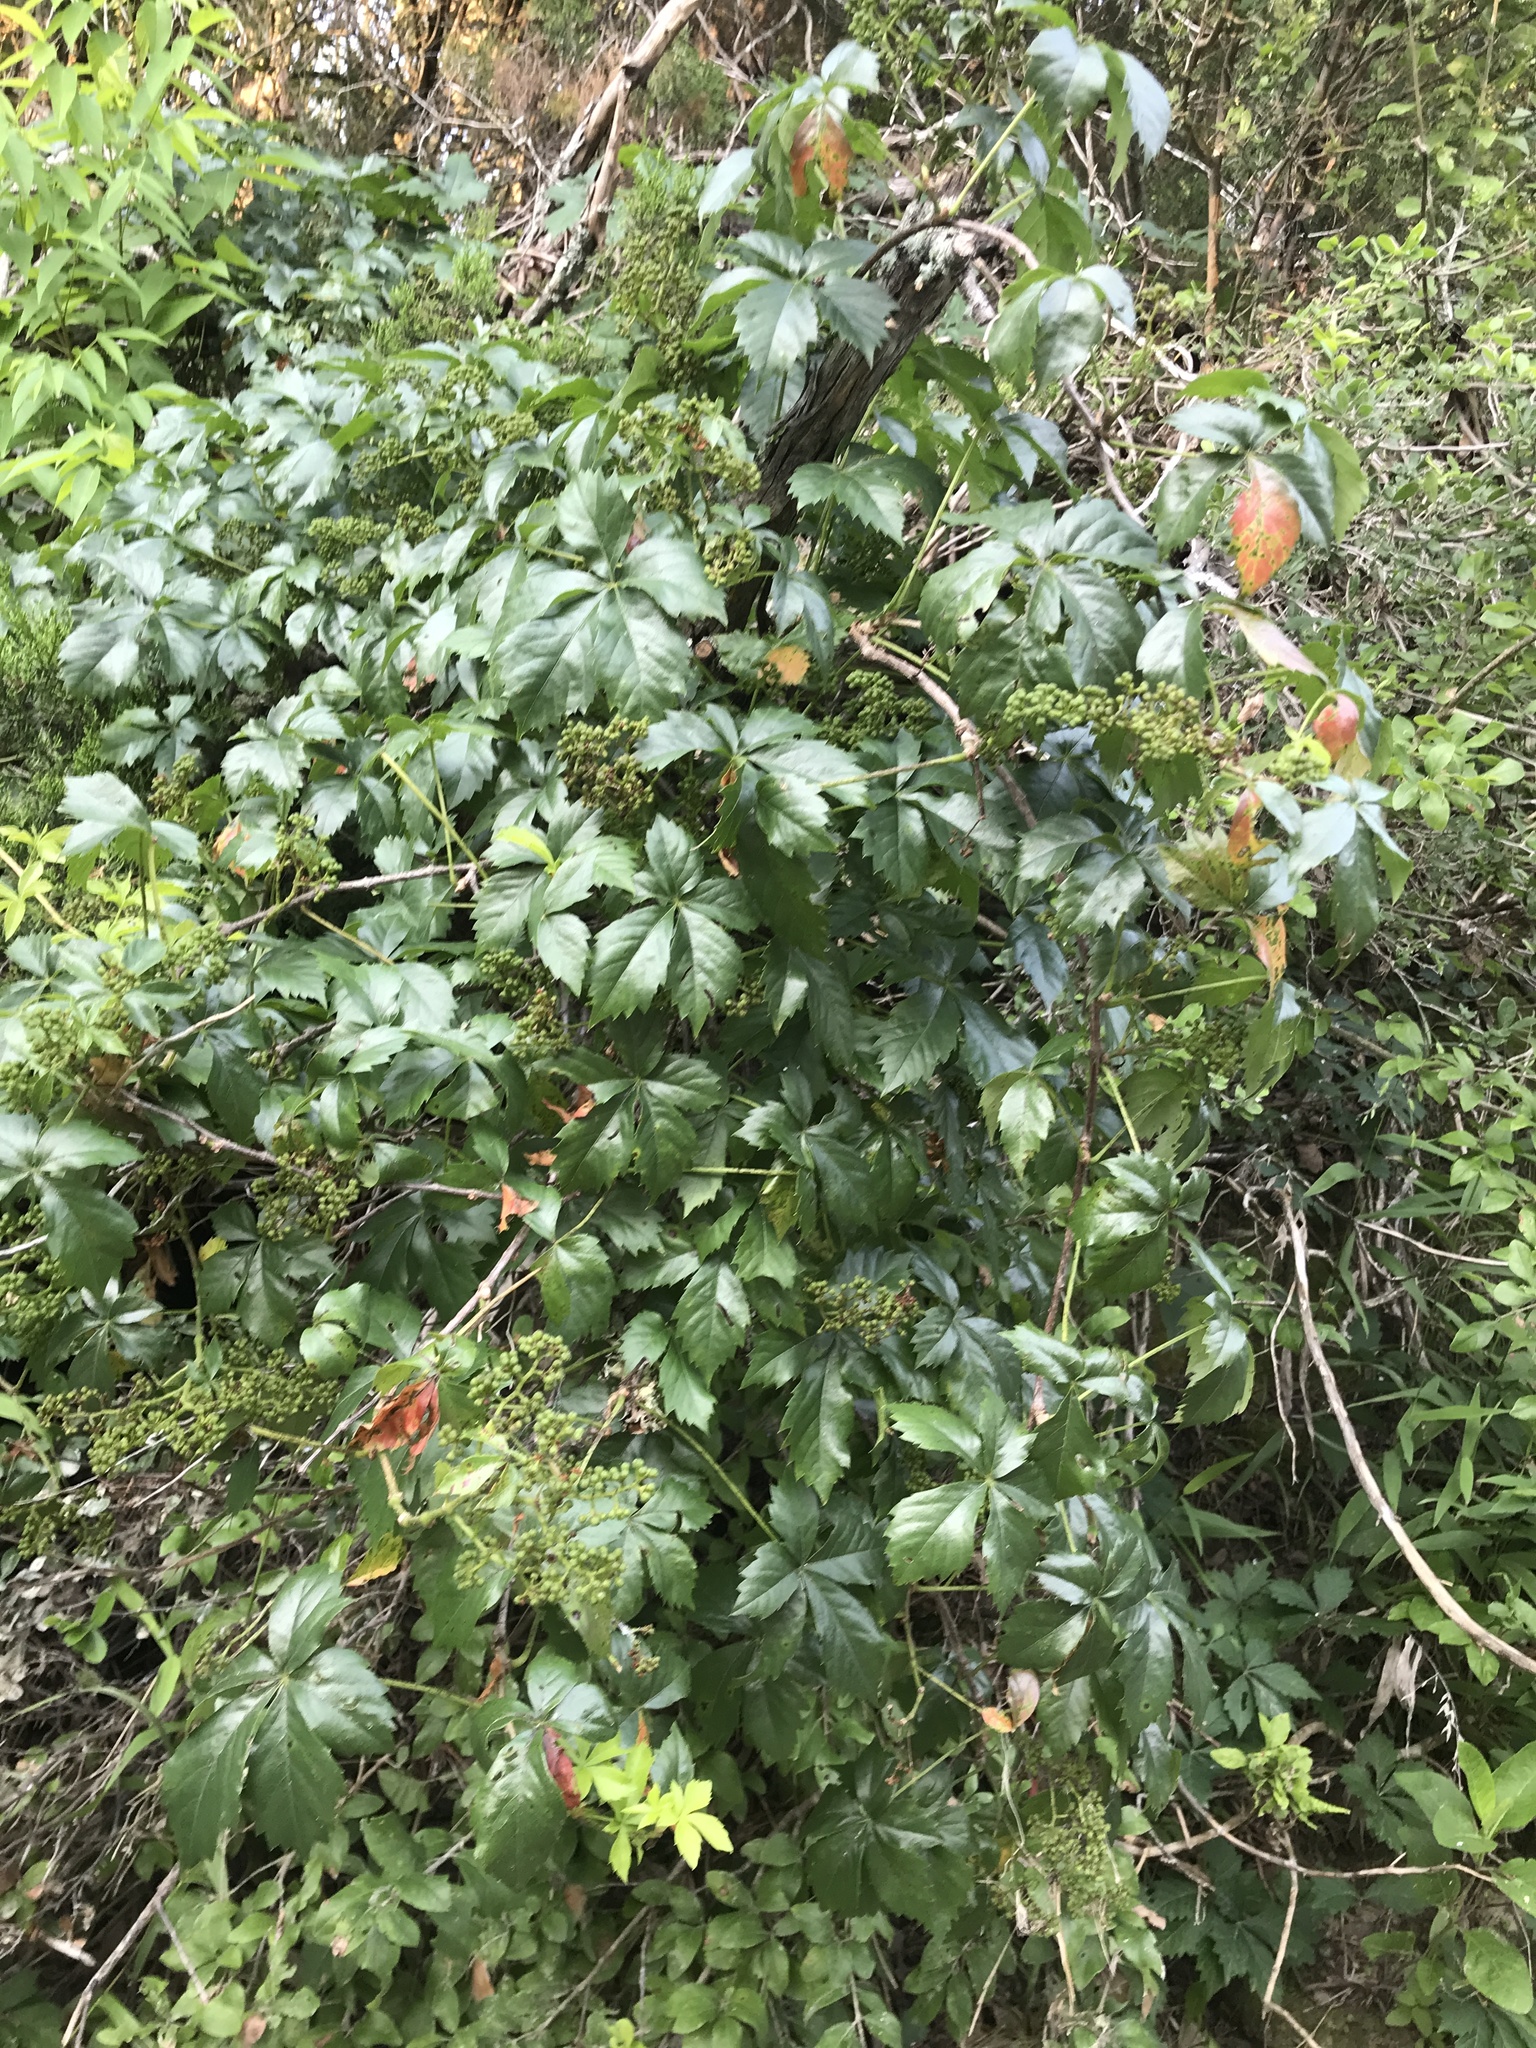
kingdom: Plantae
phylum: Tracheophyta
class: Magnoliopsida
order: Vitales
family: Vitaceae
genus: Parthenocissus
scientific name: Parthenocissus quinquefolia
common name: Virginia-creeper
